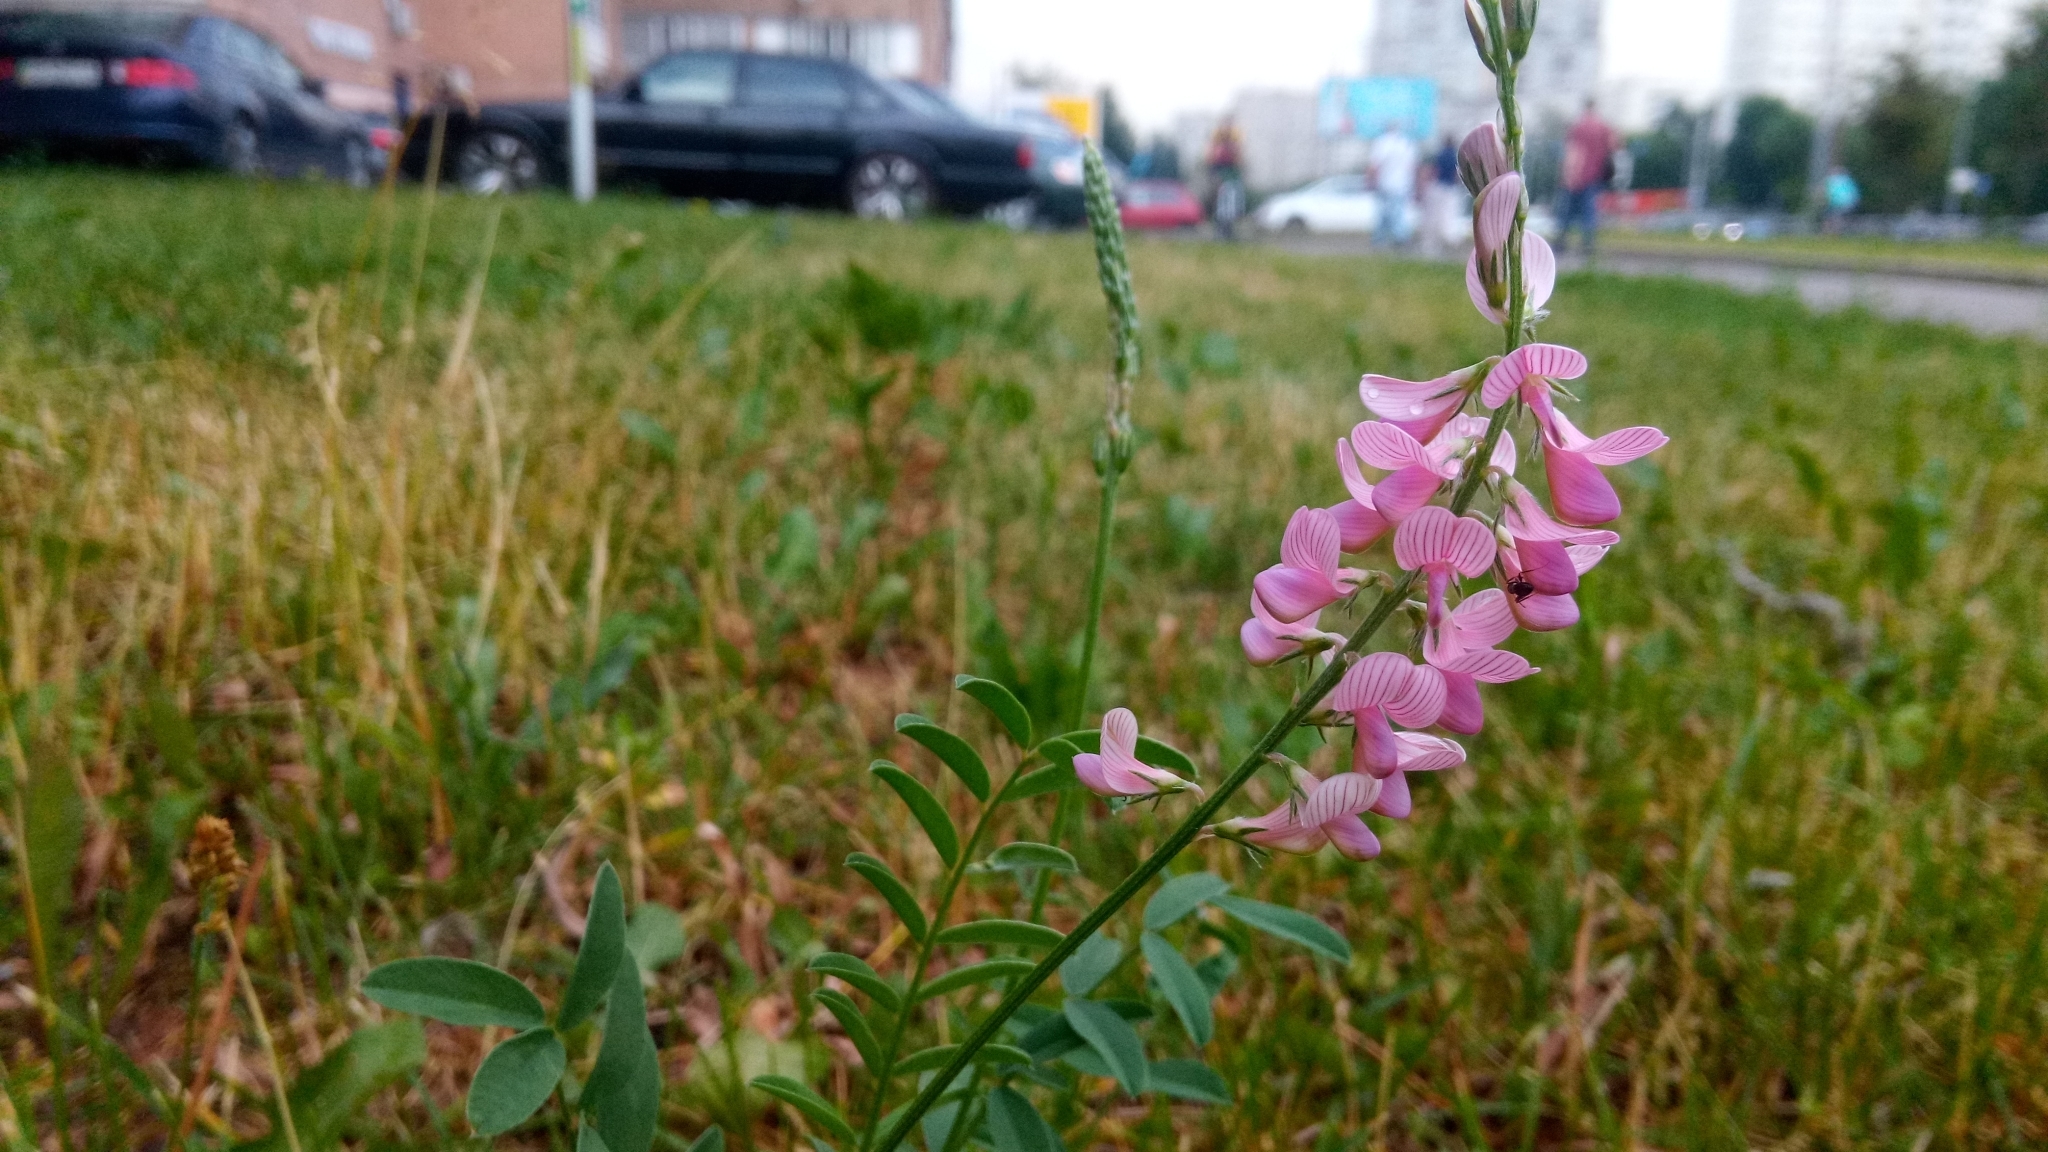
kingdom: Plantae
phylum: Tracheophyta
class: Magnoliopsida
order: Fabales
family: Fabaceae
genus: Onobrychis
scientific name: Onobrychis viciifolia
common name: Sainfoin
